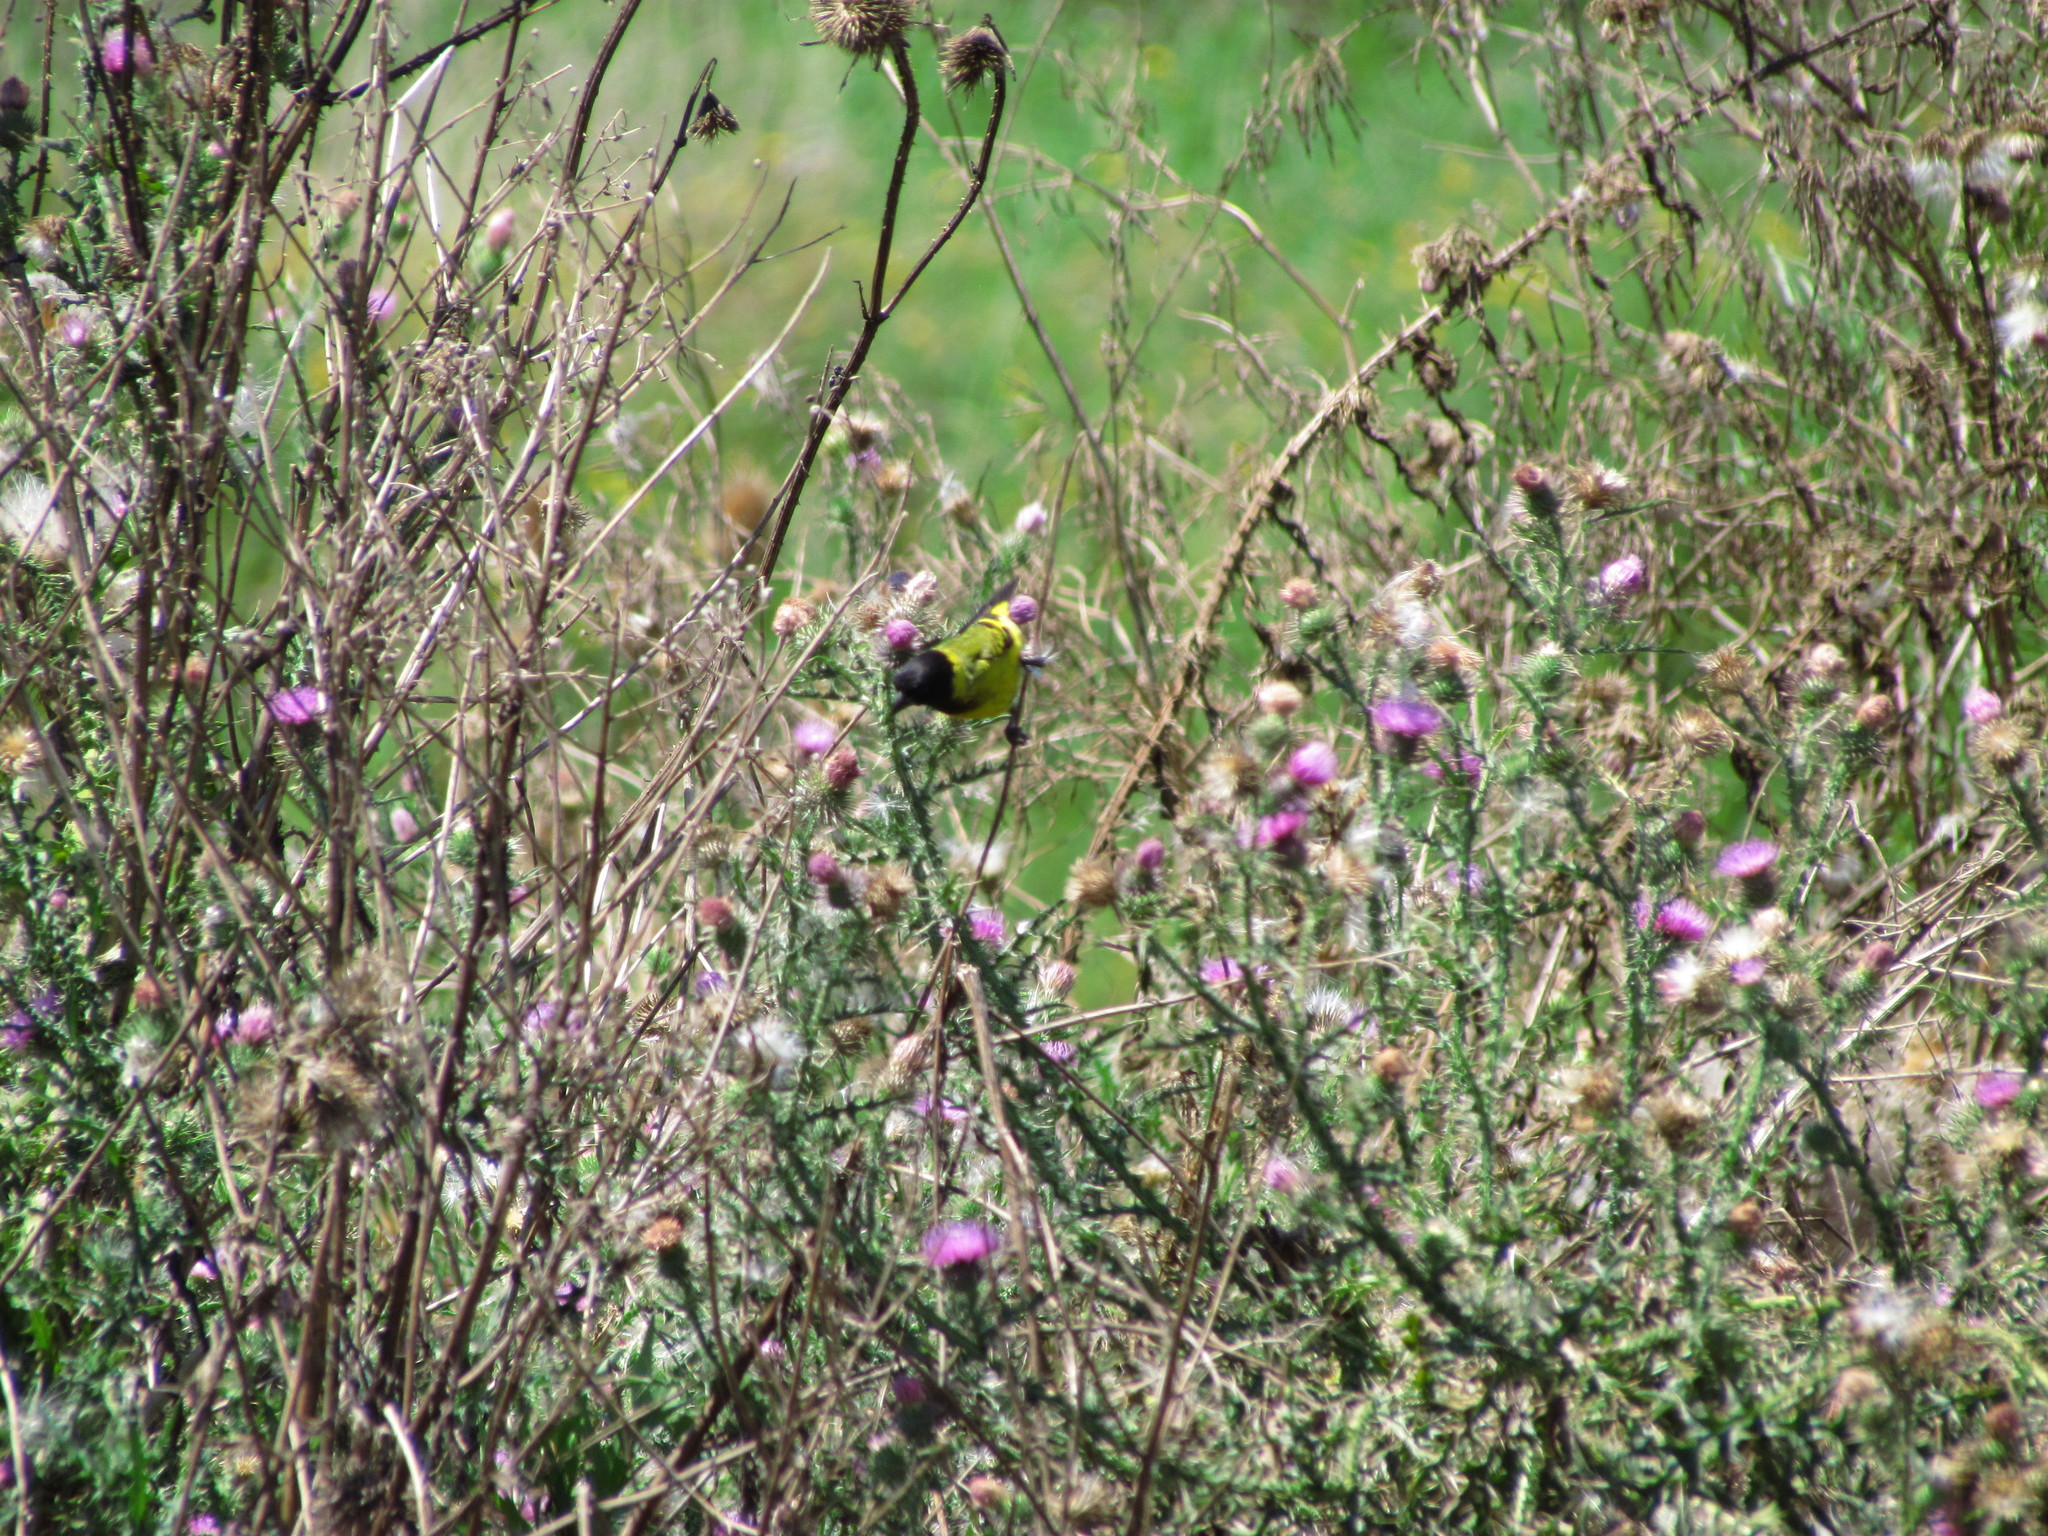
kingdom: Animalia
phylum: Chordata
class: Aves
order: Passeriformes
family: Fringillidae
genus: Spinus
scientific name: Spinus magellanicus
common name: Hooded siskin
